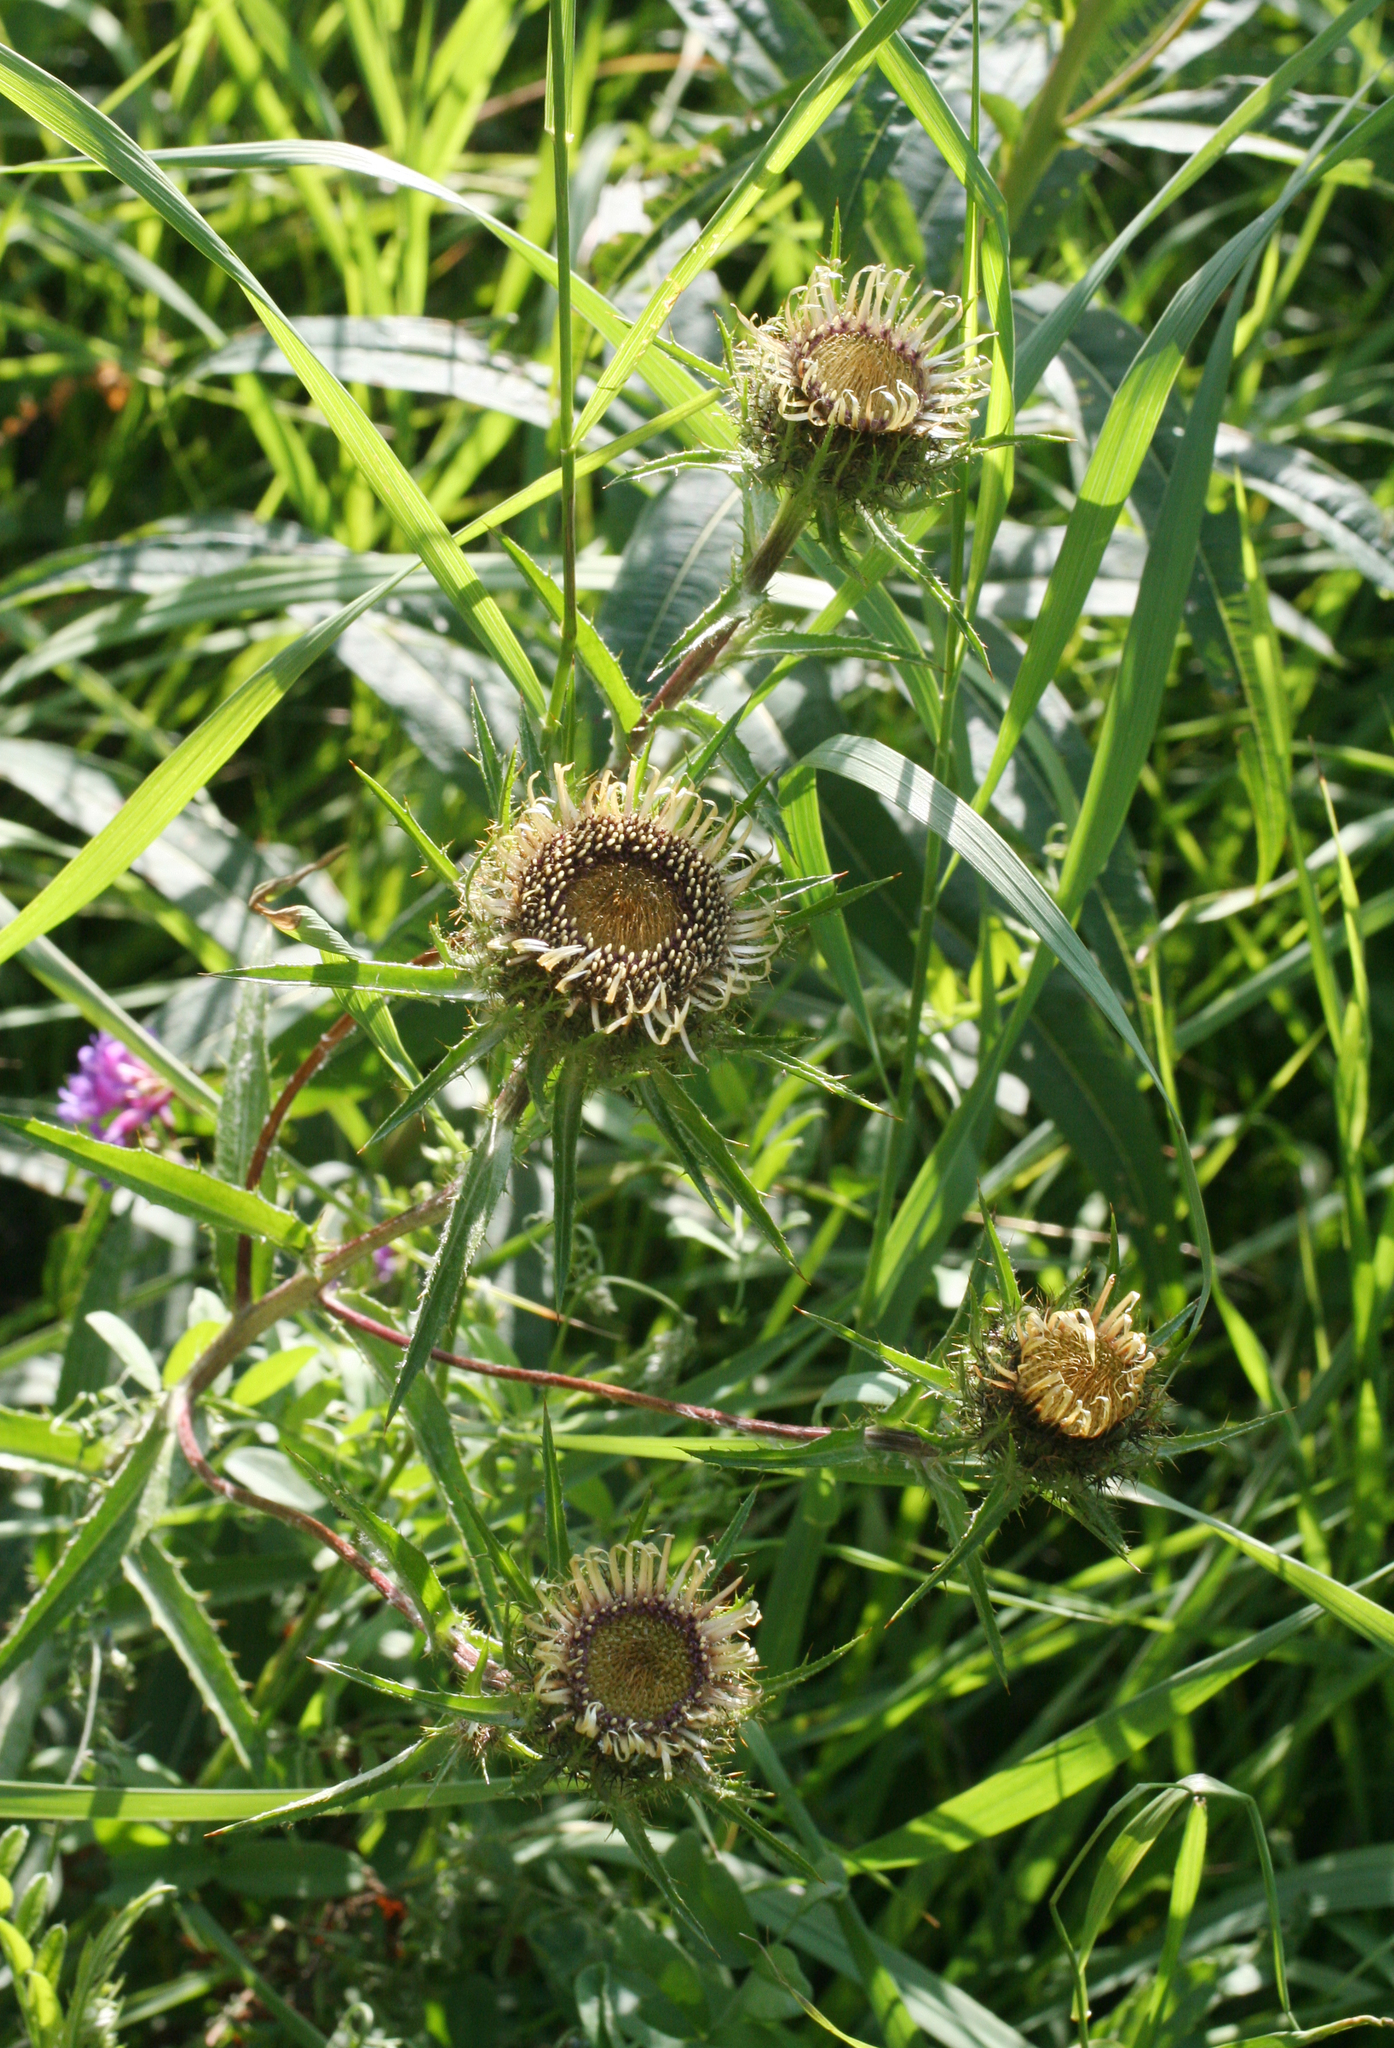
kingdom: Plantae
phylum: Tracheophyta
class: Magnoliopsida
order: Asterales
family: Asteraceae
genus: Carlina
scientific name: Carlina biebersteinii
